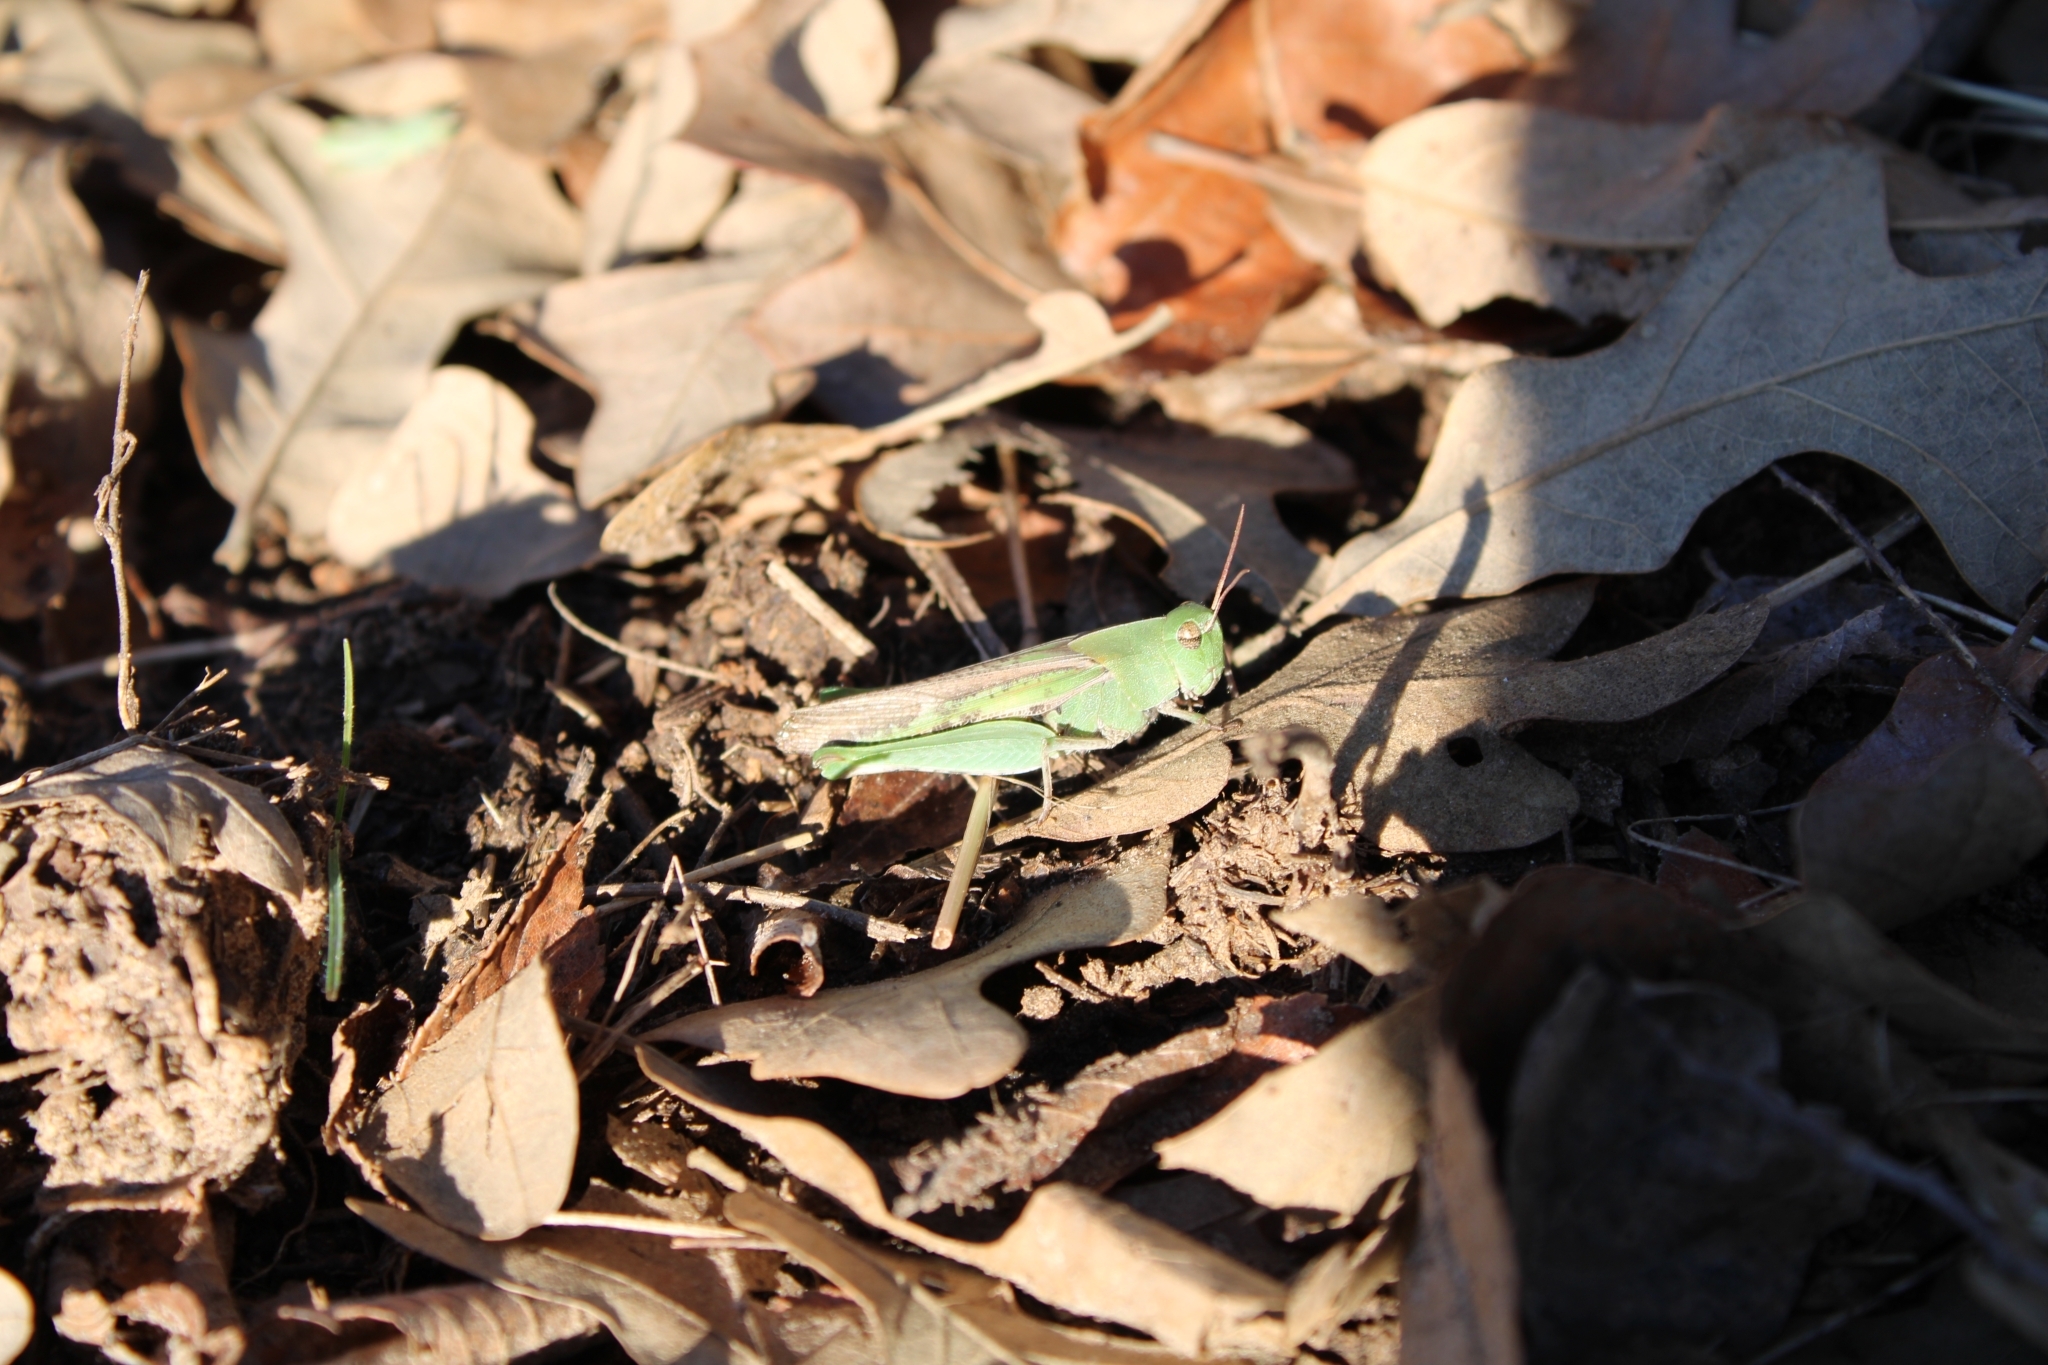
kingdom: Animalia
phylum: Arthropoda
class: Insecta
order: Orthoptera
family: Acrididae
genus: Chortophaga
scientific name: Chortophaga viridifasciata
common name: Green-striped grasshopper
